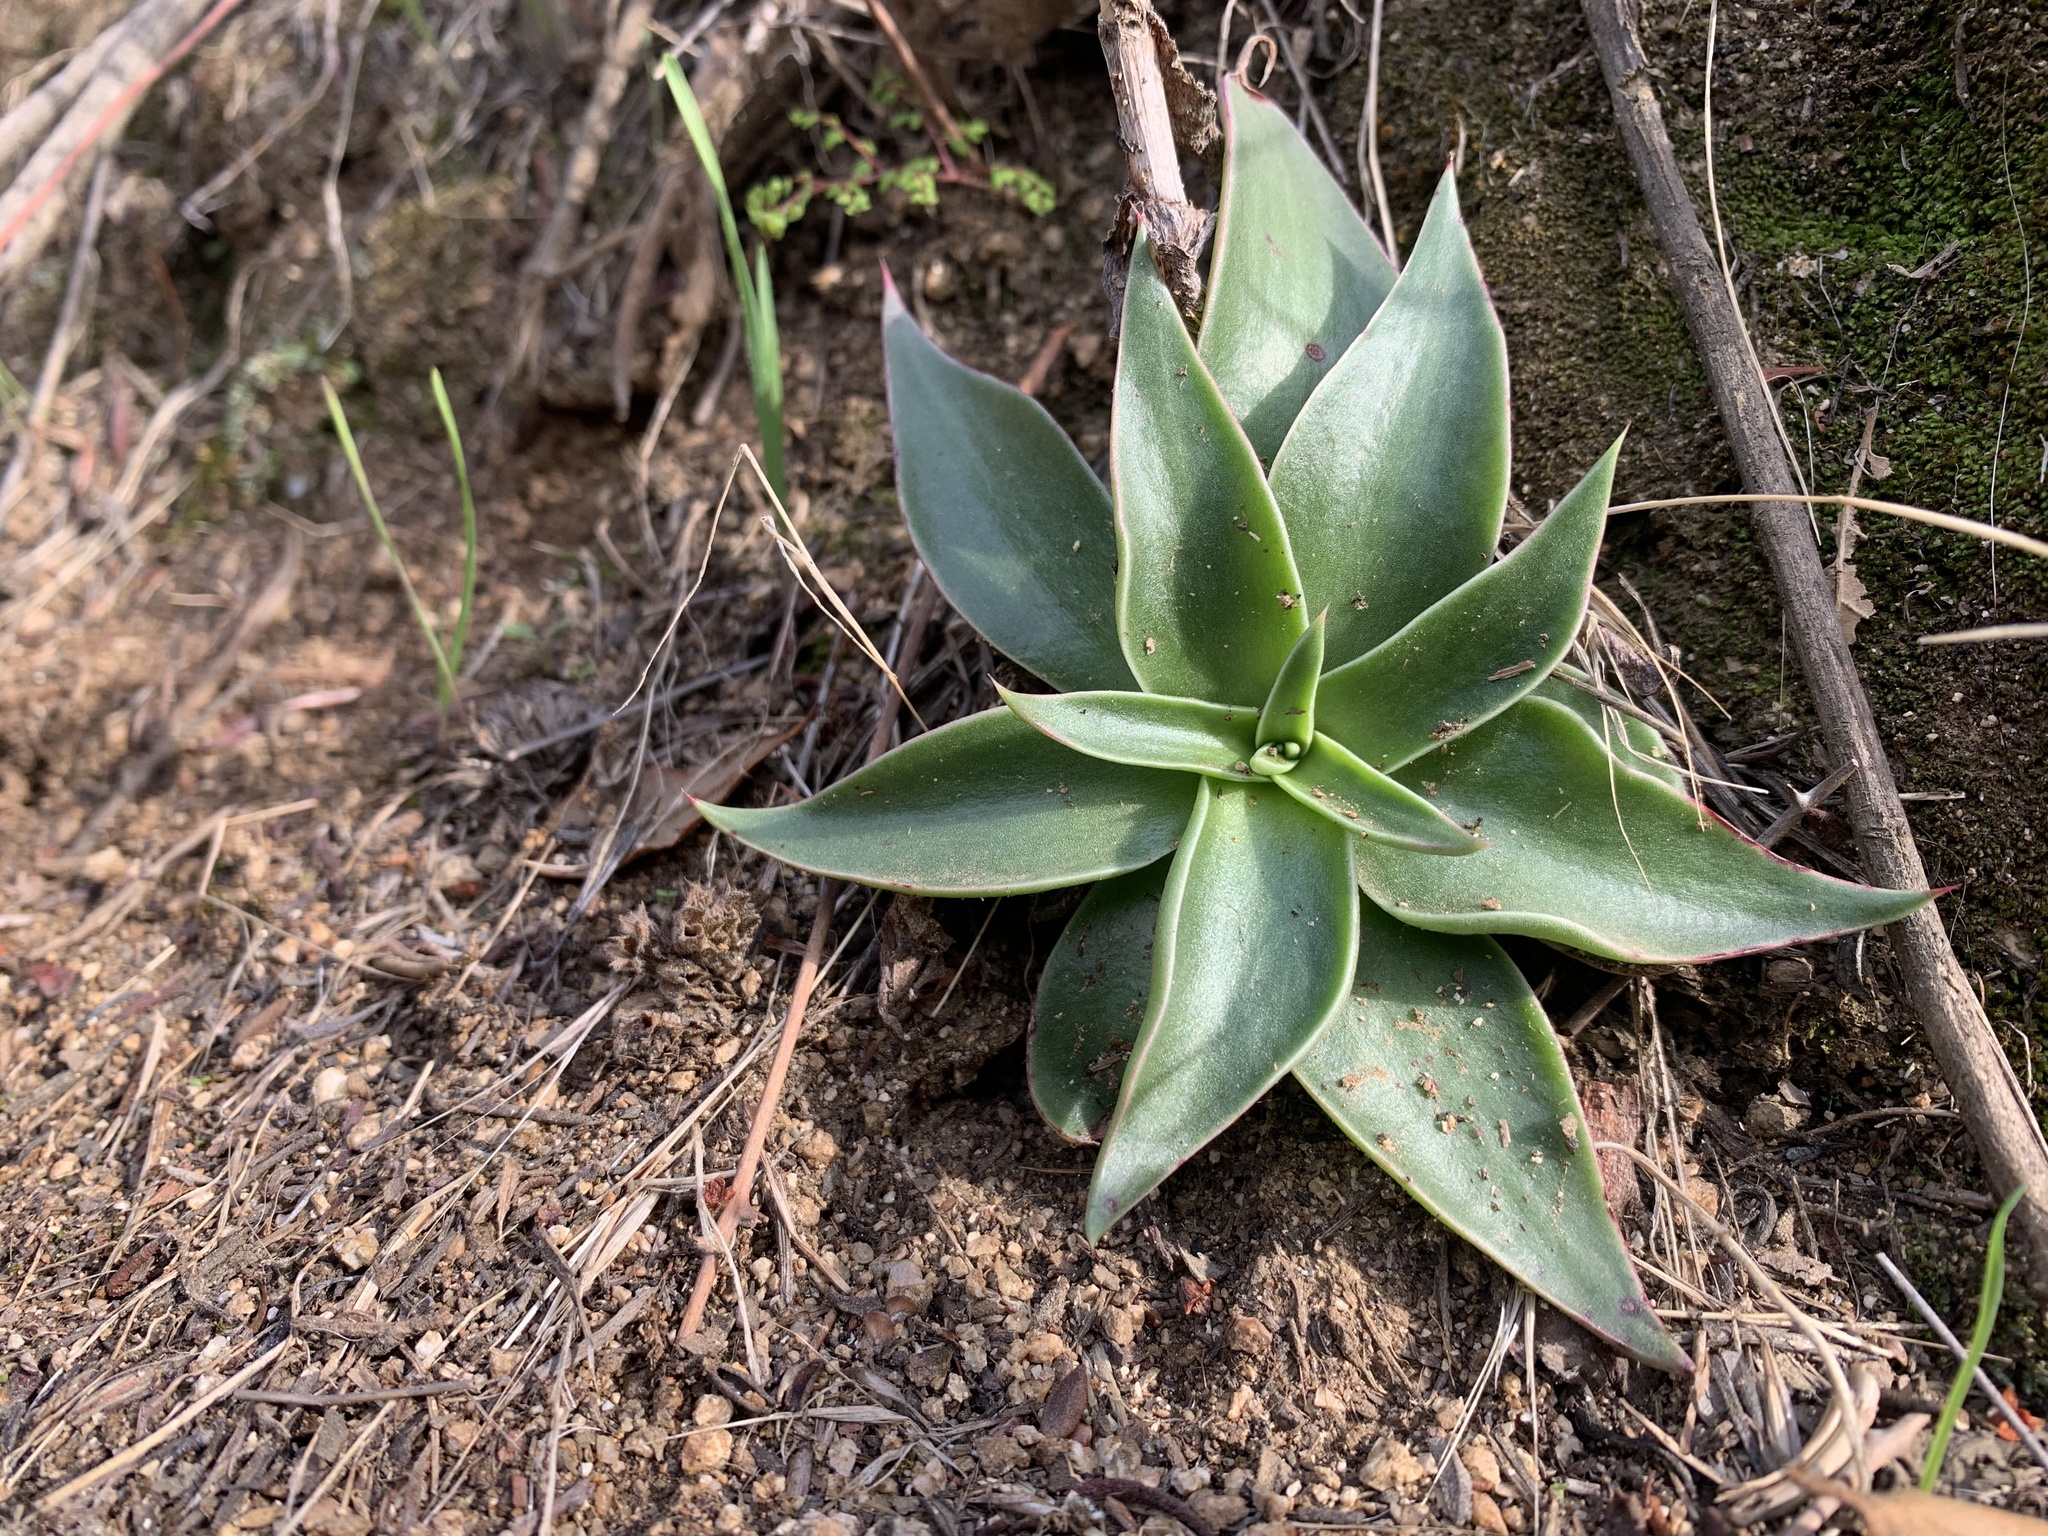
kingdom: Plantae
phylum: Tracheophyta
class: Magnoliopsida
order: Saxifragales
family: Crassulaceae
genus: Dudleya
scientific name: Dudleya cymosa
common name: Canyon dudleya
